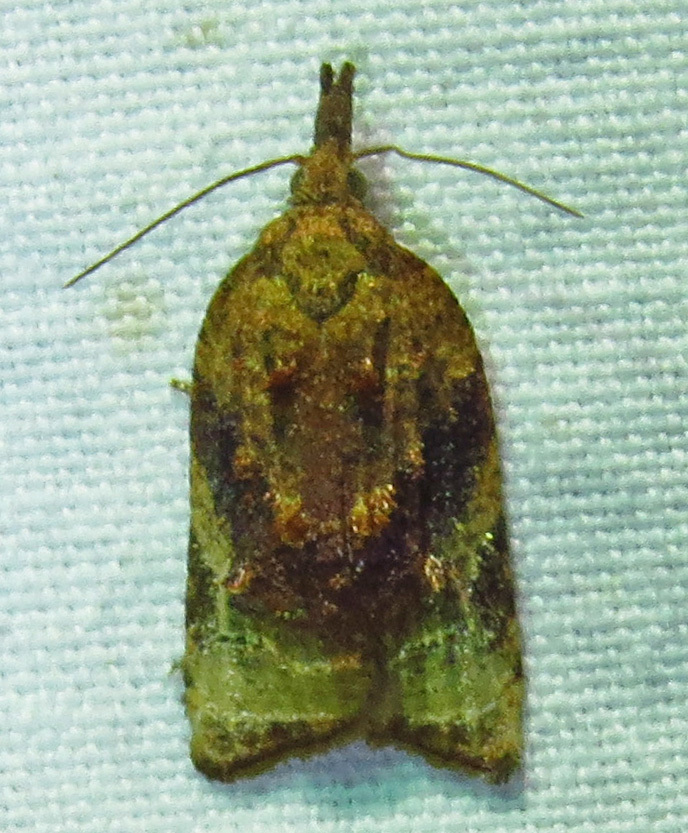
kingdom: Animalia
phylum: Arthropoda
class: Insecta
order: Lepidoptera
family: Tortricidae
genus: Platynota
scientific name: Platynota flavedana
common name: Black-shaded platynota moth
